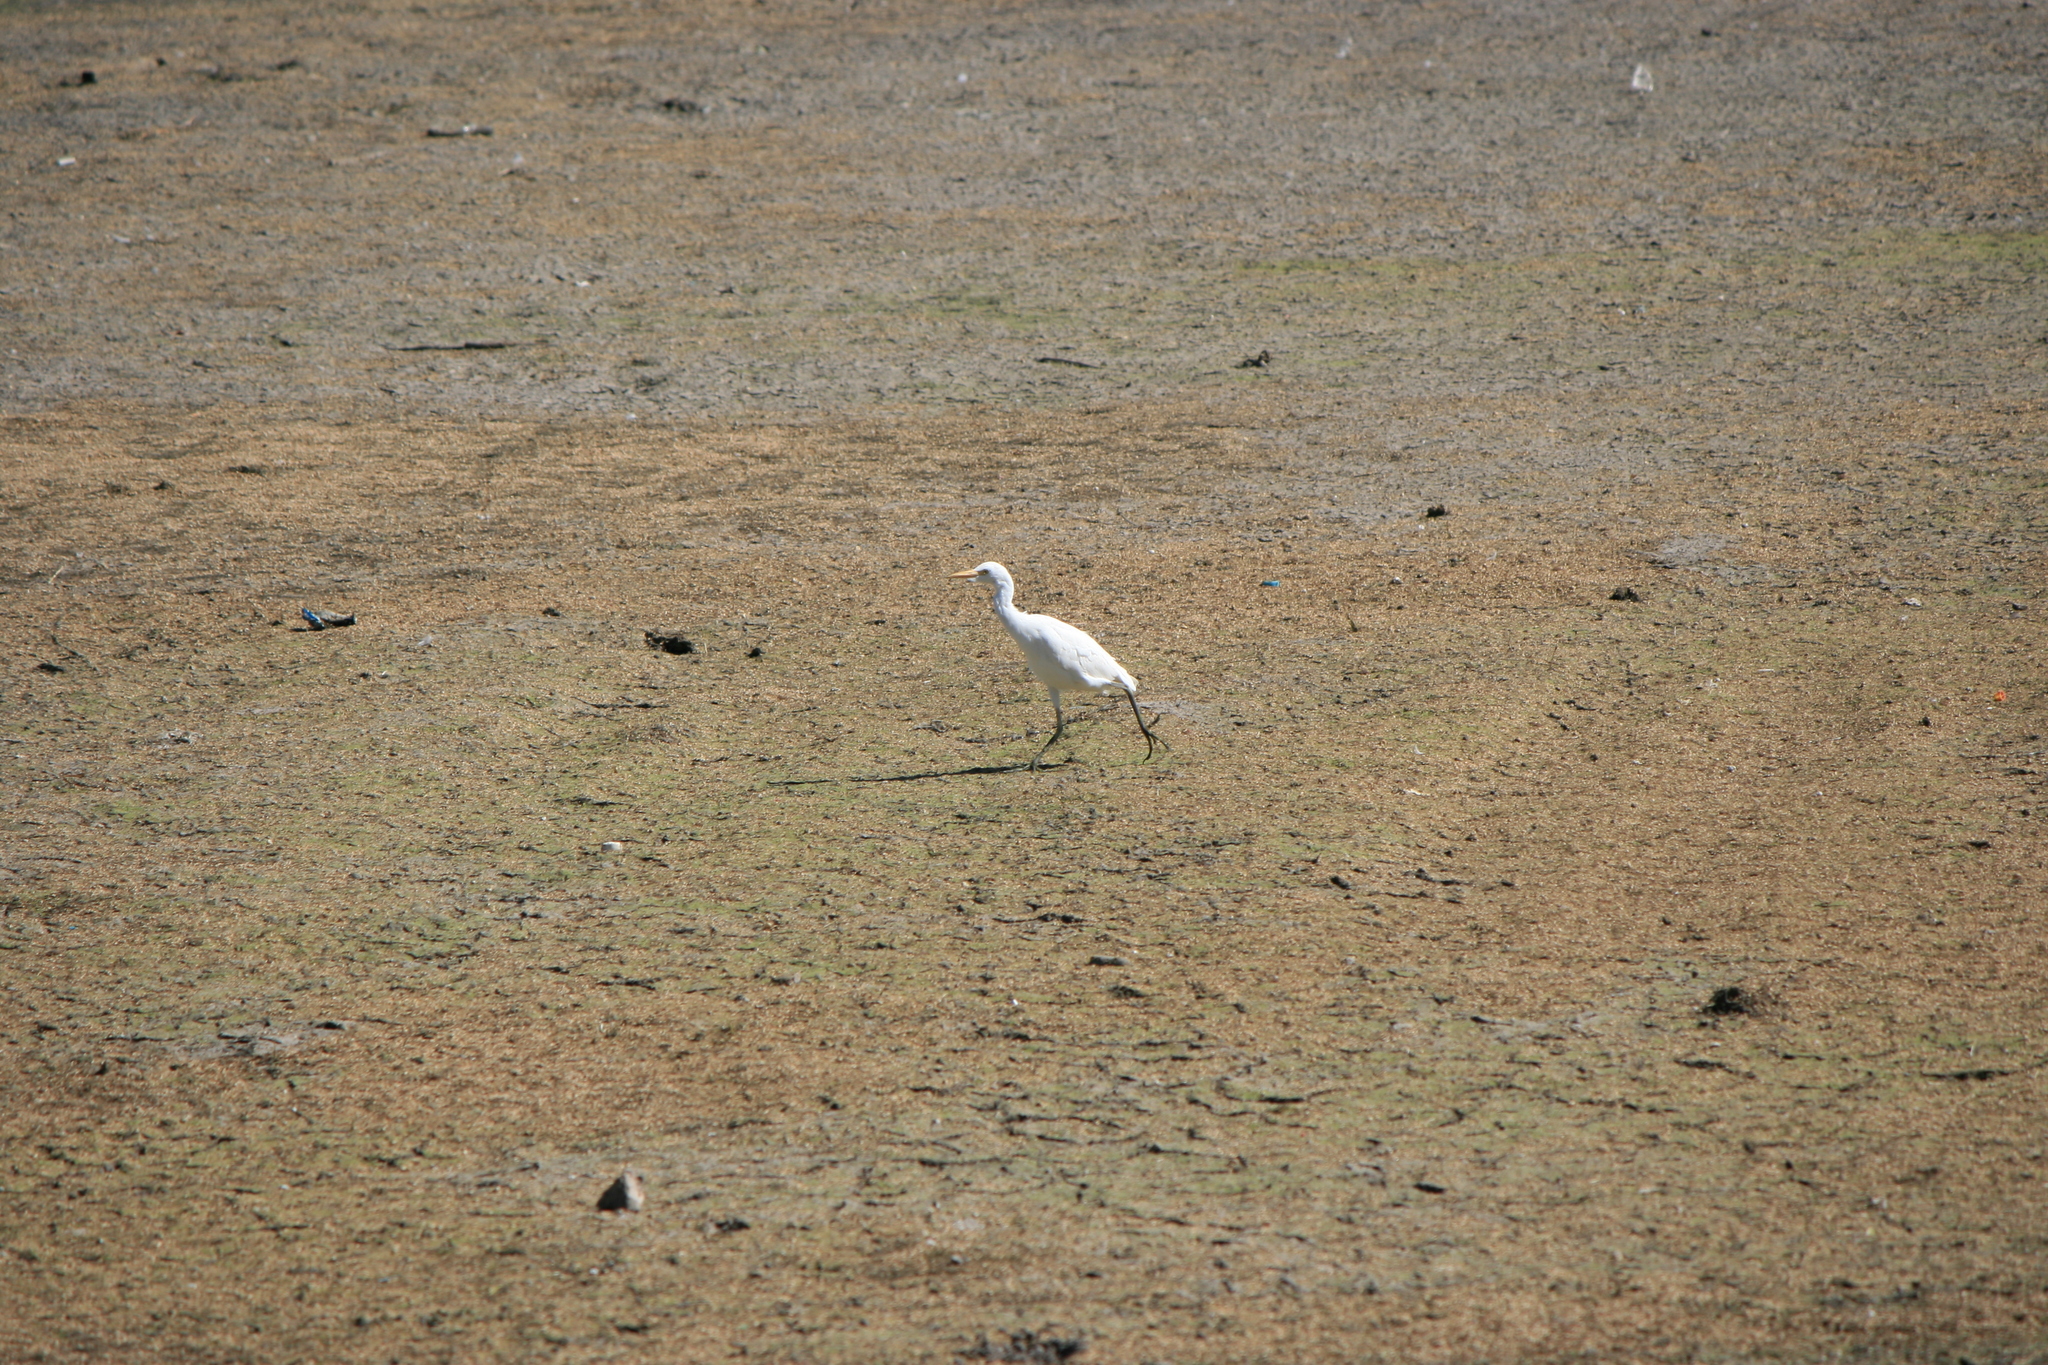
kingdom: Animalia
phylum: Chordata
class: Aves
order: Pelecaniformes
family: Ardeidae
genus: Bubulcus
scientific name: Bubulcus ibis
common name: Cattle egret
